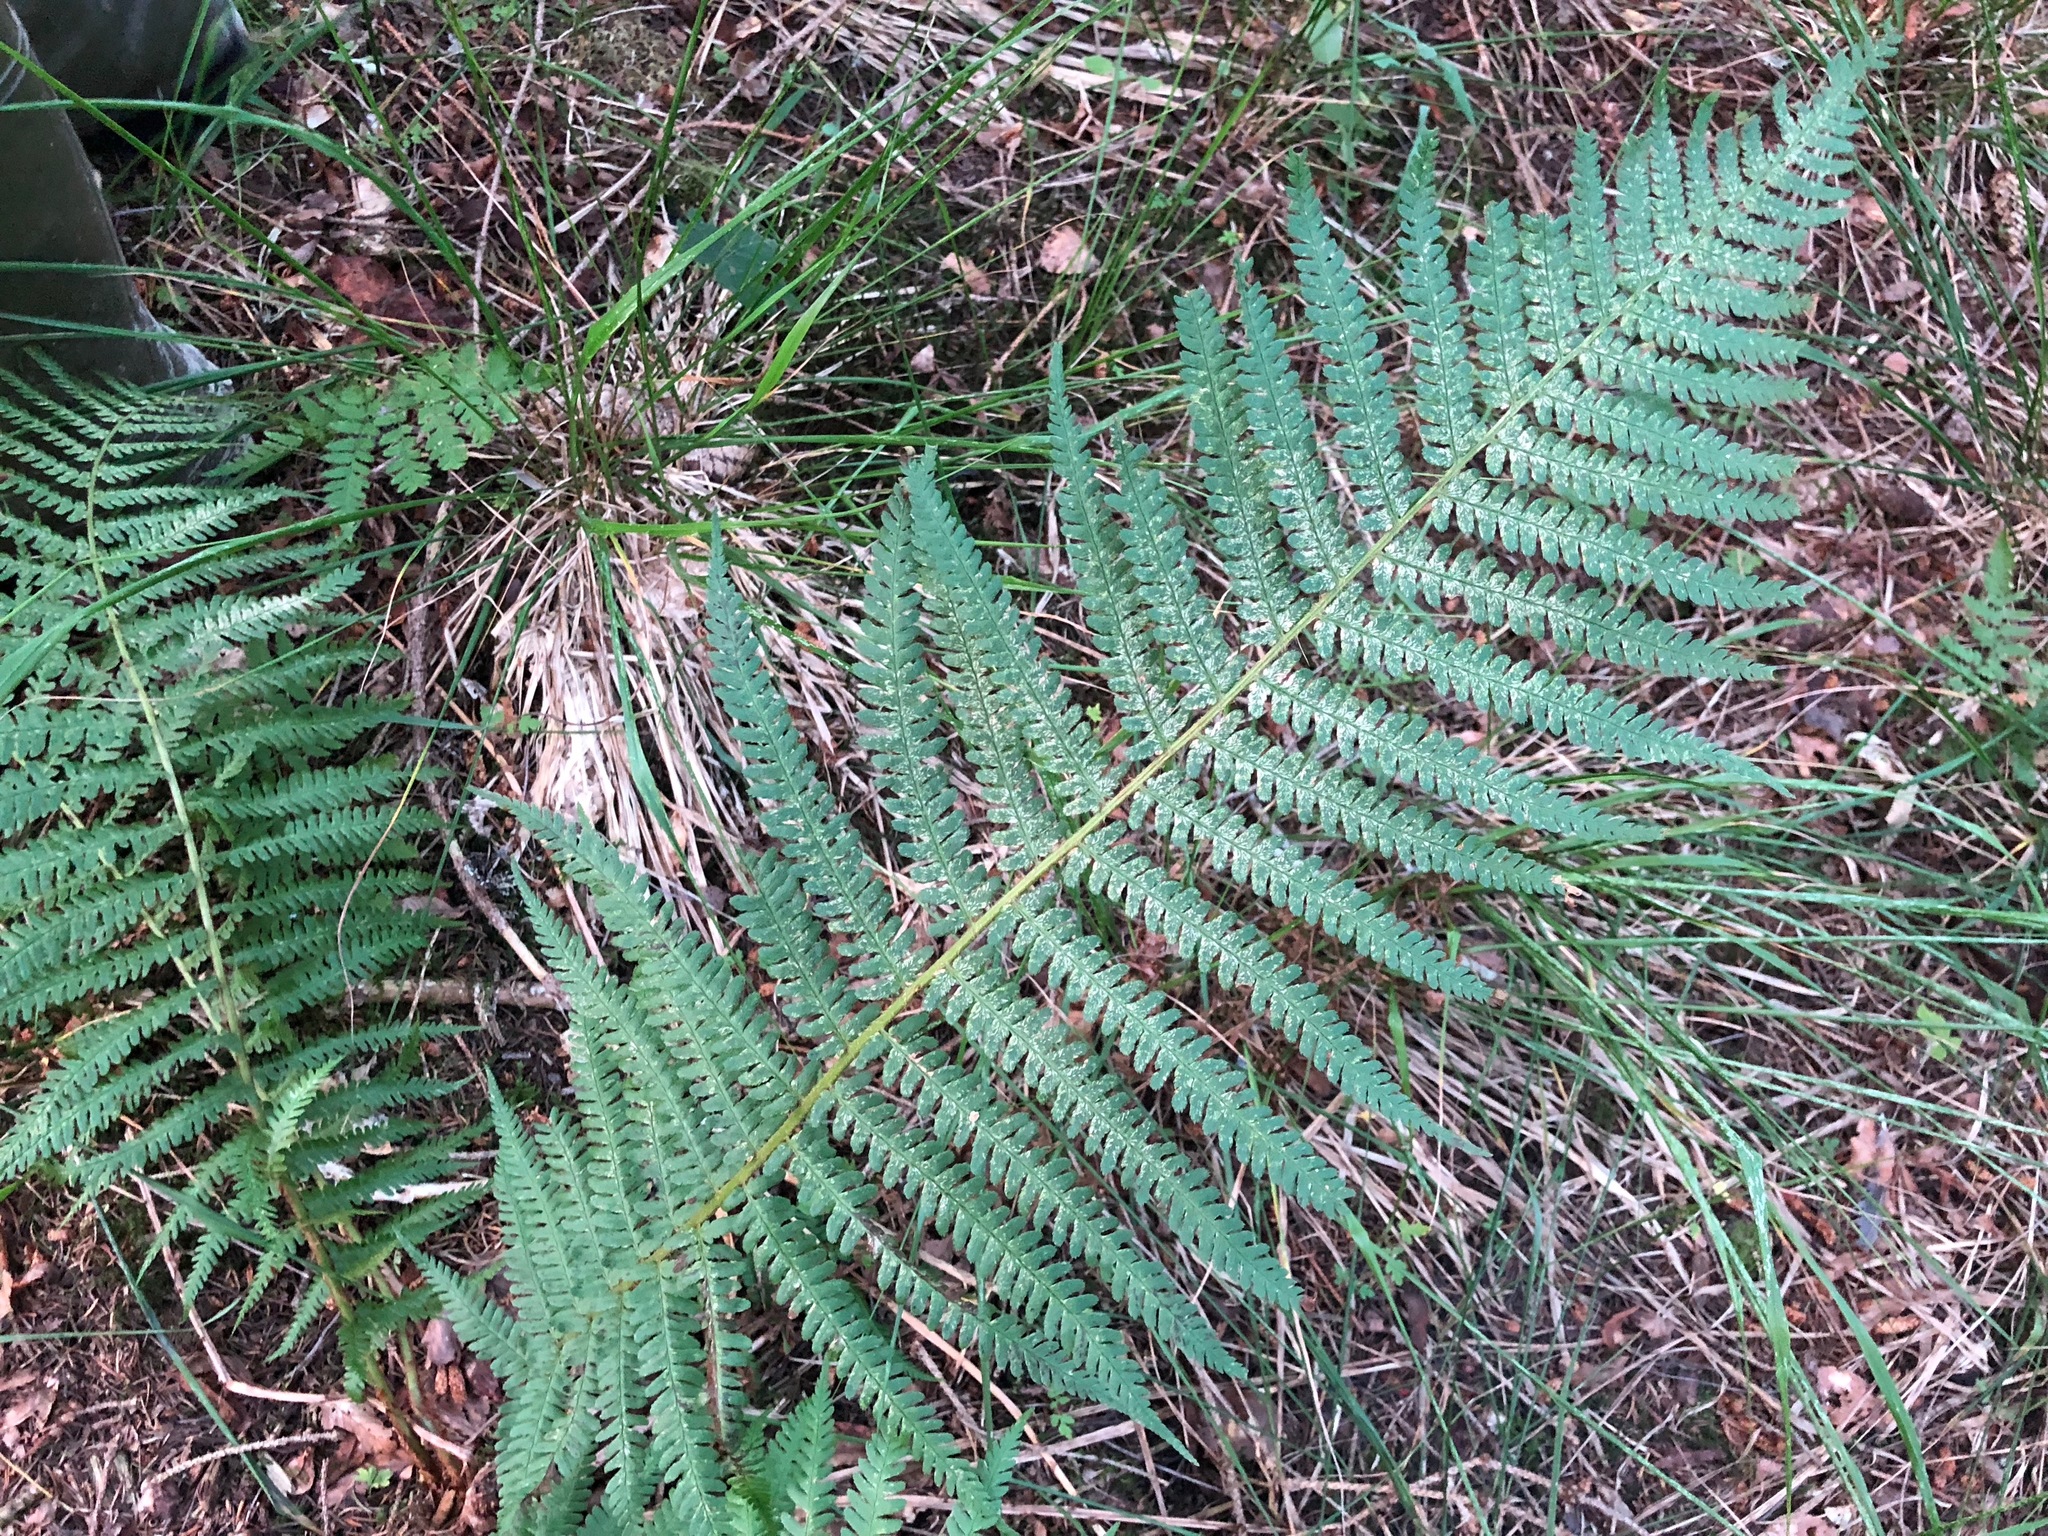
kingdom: Plantae
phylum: Tracheophyta
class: Polypodiopsida
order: Polypodiales
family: Dryopteridaceae
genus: Dryopteris
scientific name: Dryopteris filix-mas
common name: Male fern
